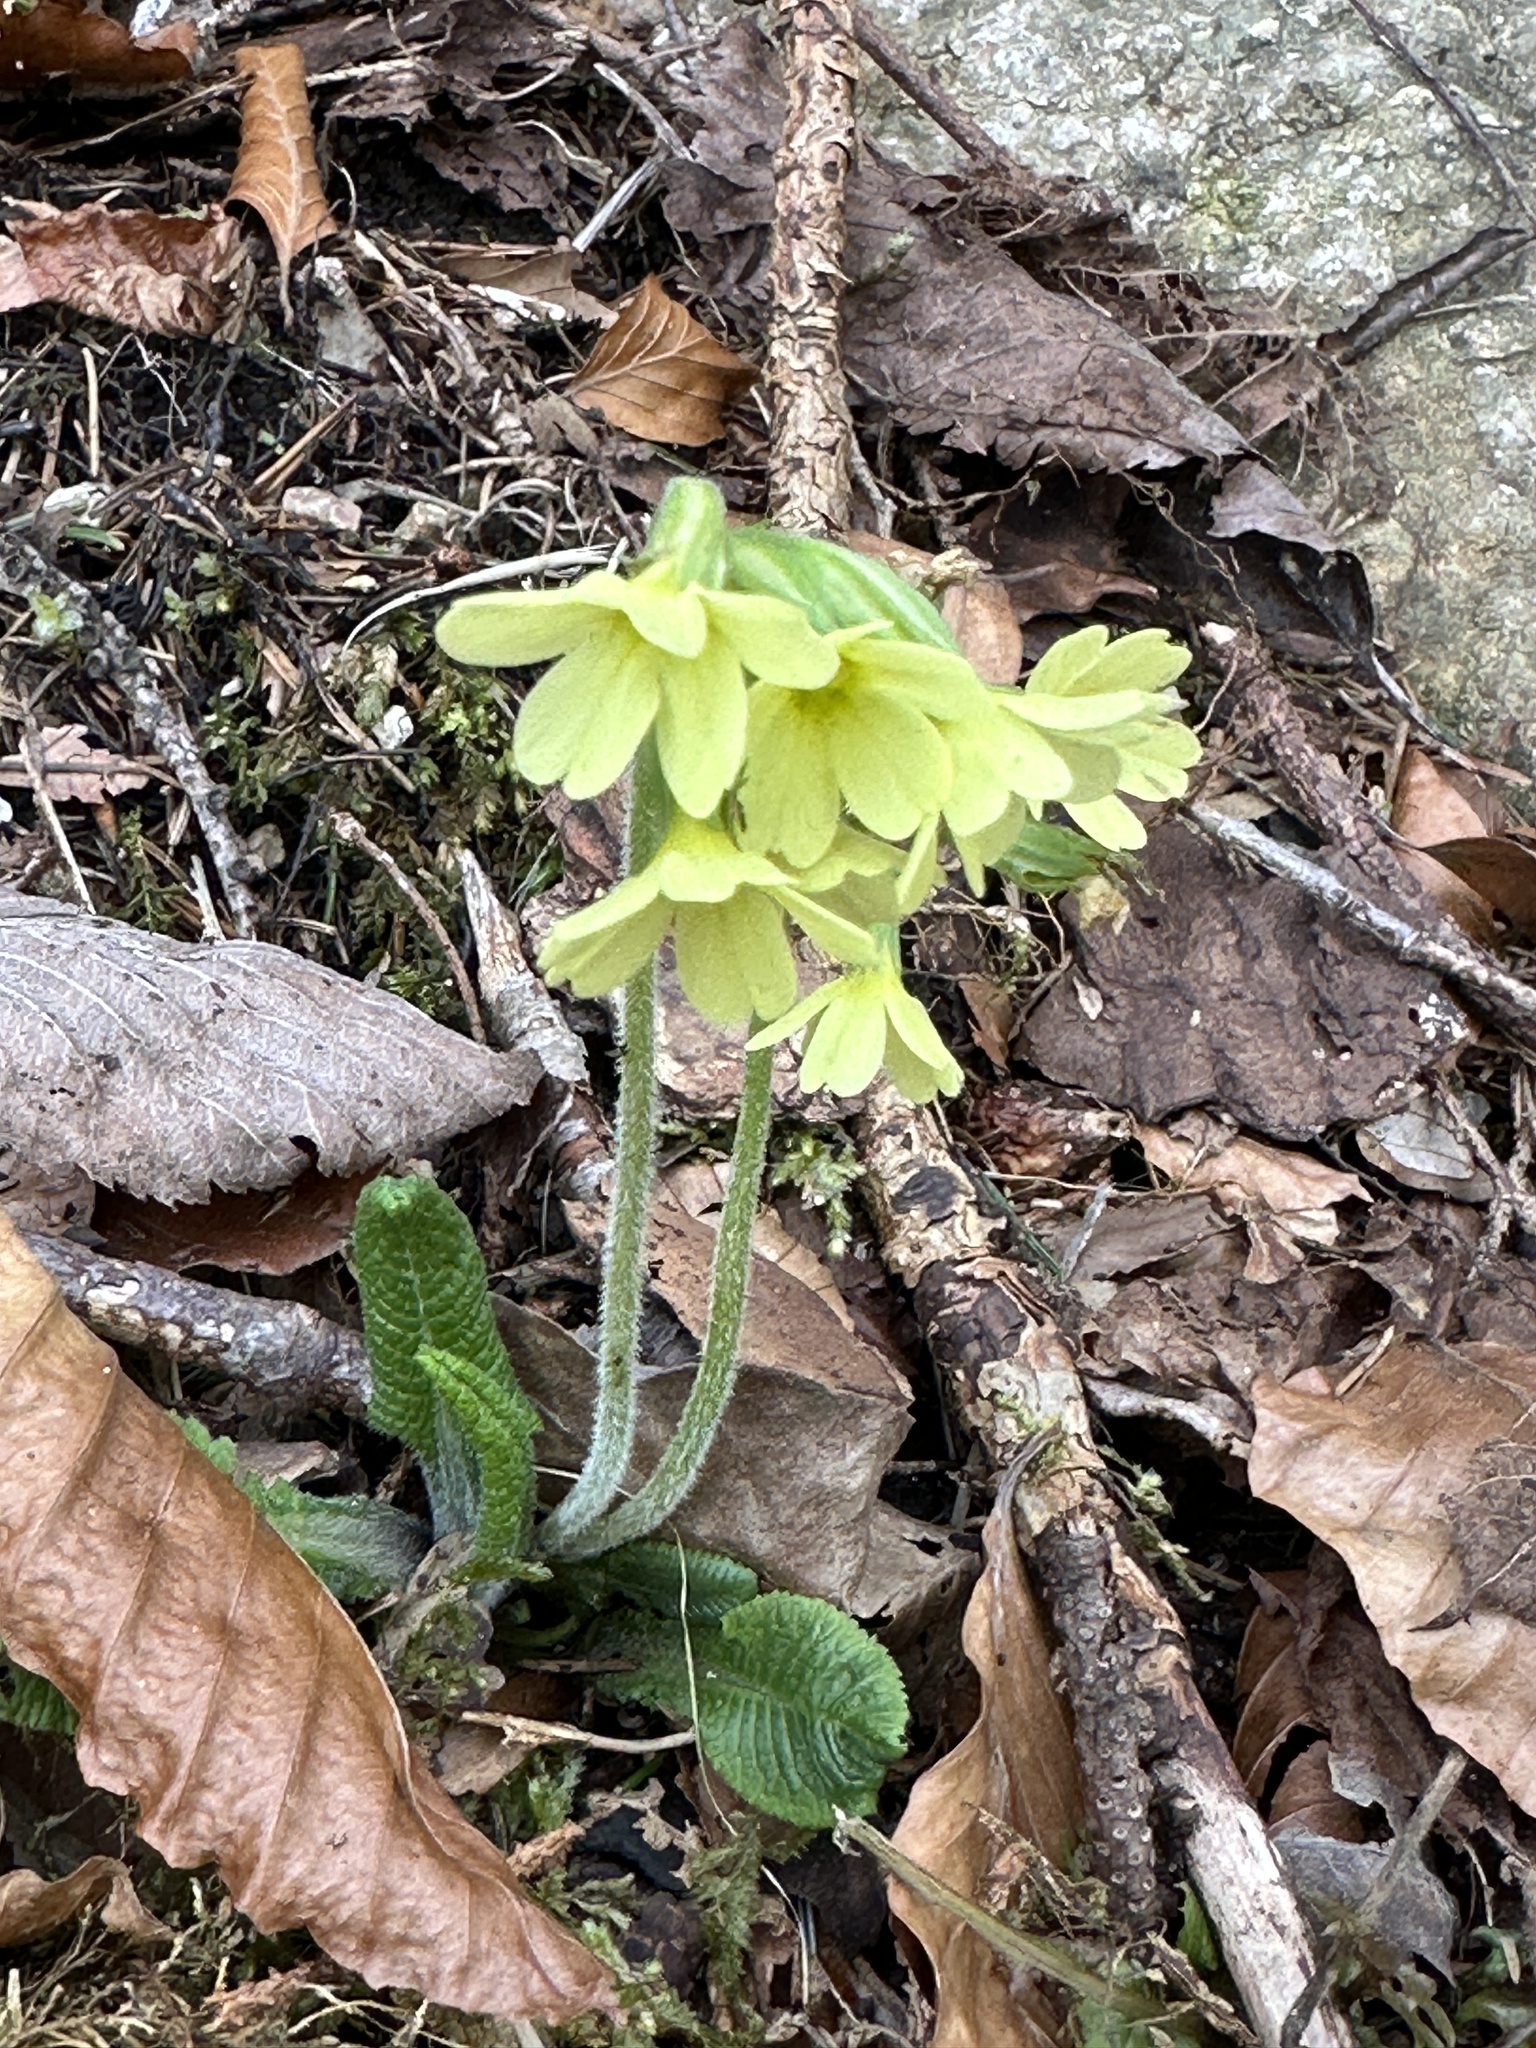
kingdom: Plantae
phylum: Tracheophyta
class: Magnoliopsida
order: Ericales
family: Primulaceae
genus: Primula
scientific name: Primula elatior
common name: Oxlip
